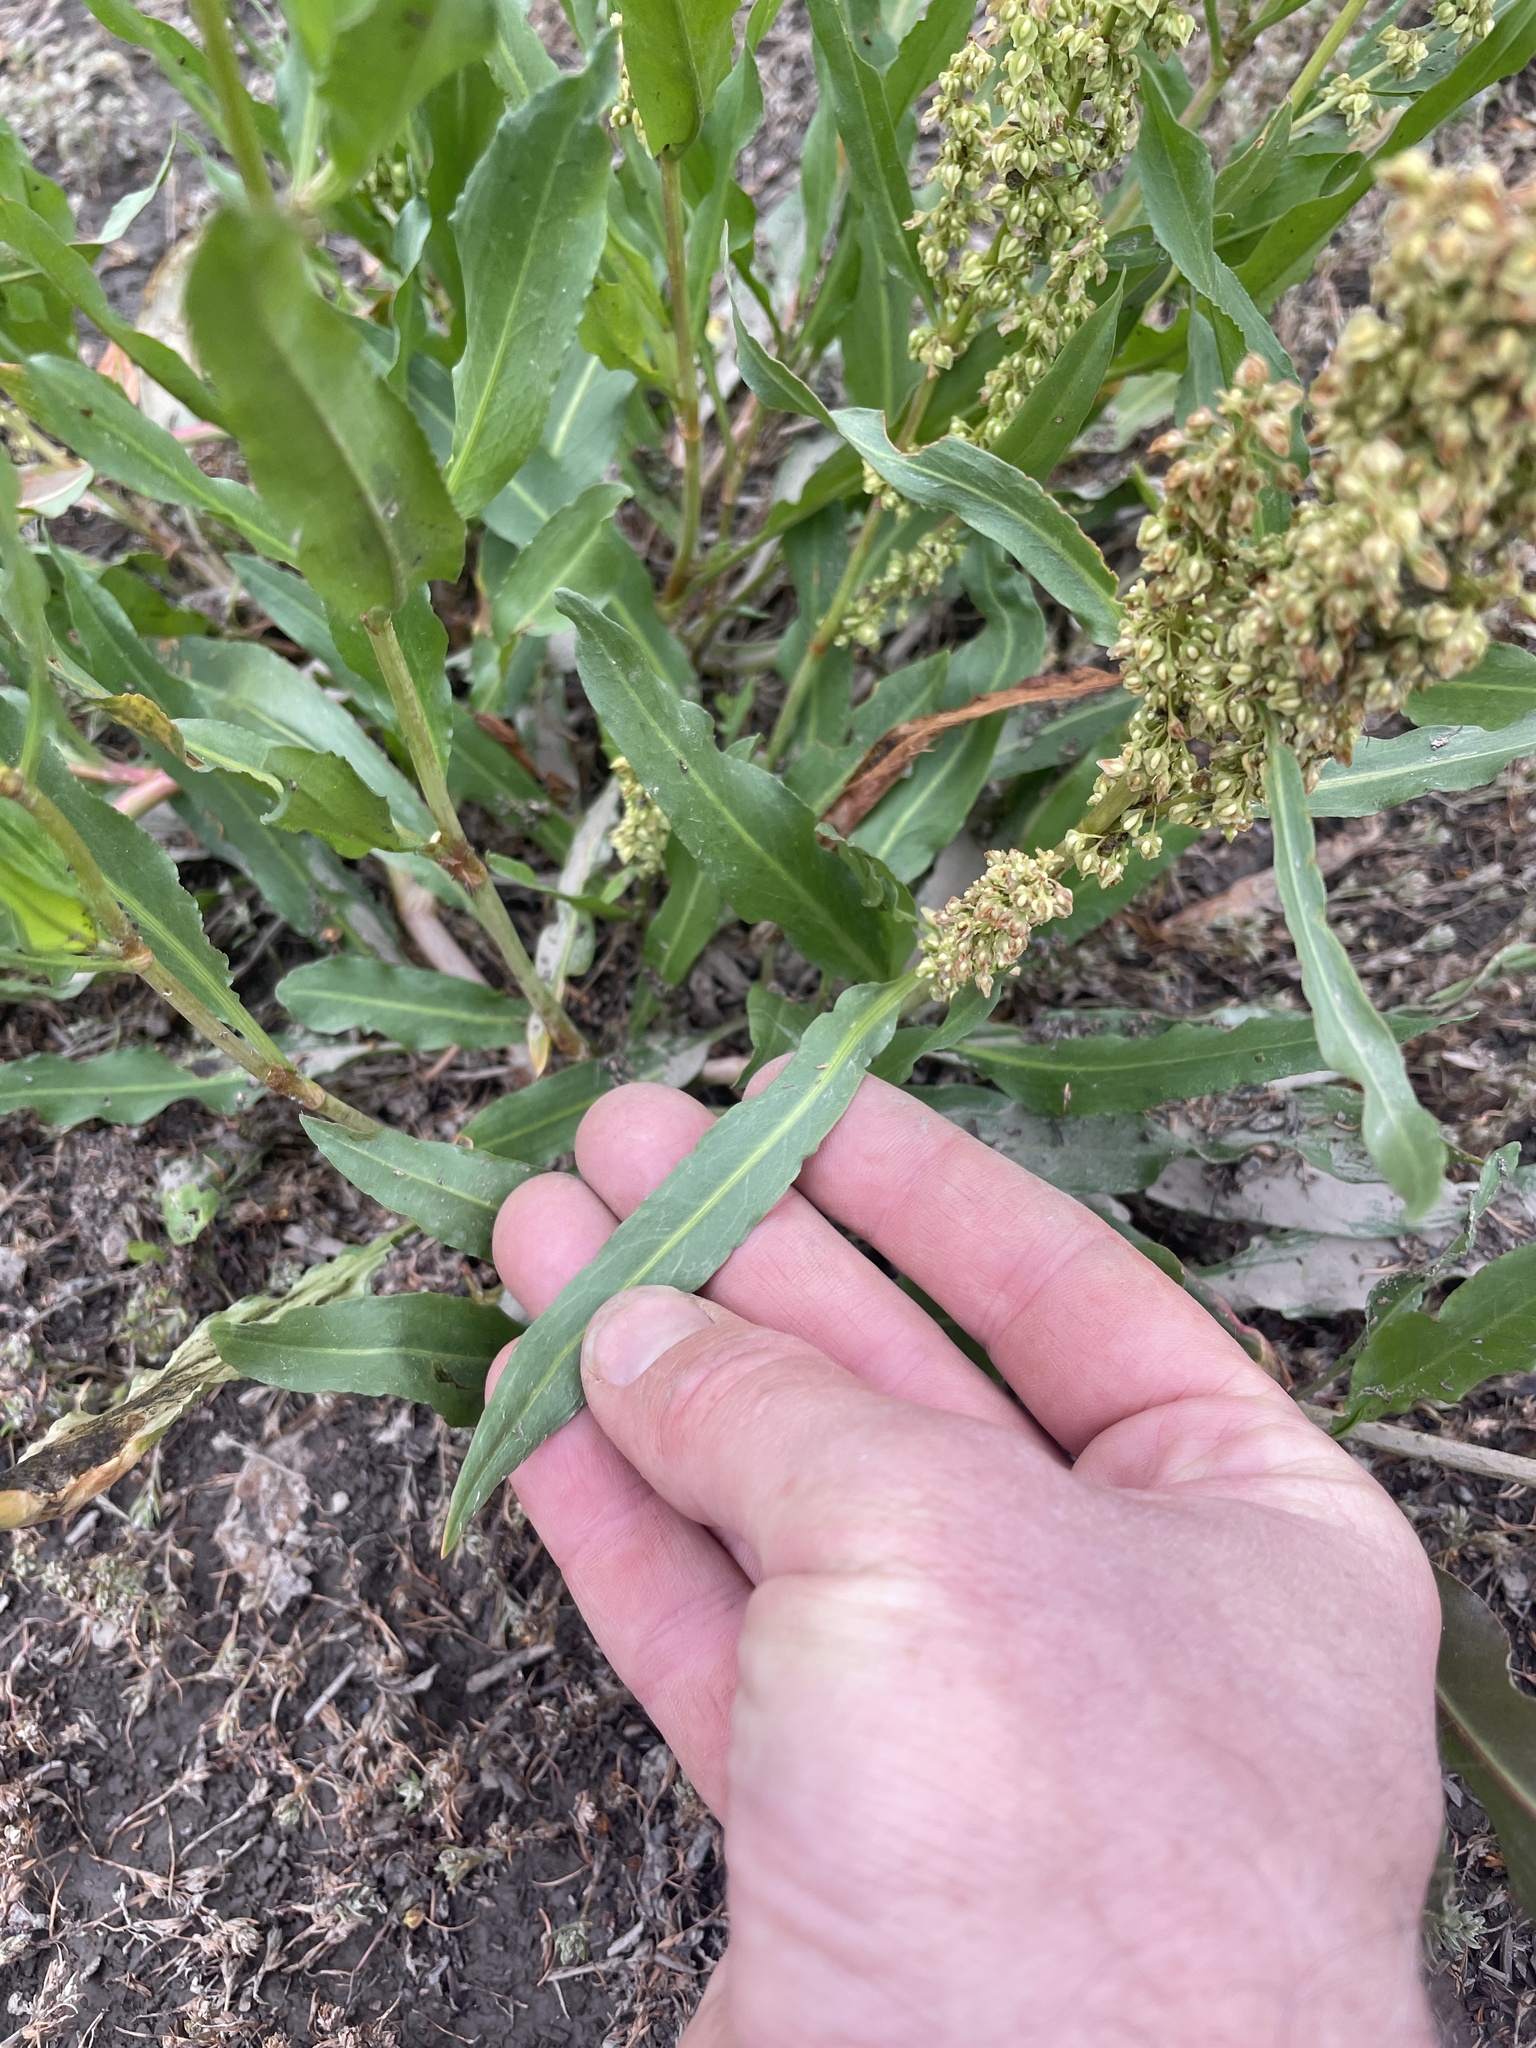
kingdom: Plantae
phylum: Tracheophyta
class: Magnoliopsida
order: Caryophyllales
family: Polygonaceae
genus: Rumex
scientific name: Rumex salicifolius
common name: Willow-leaved dock
